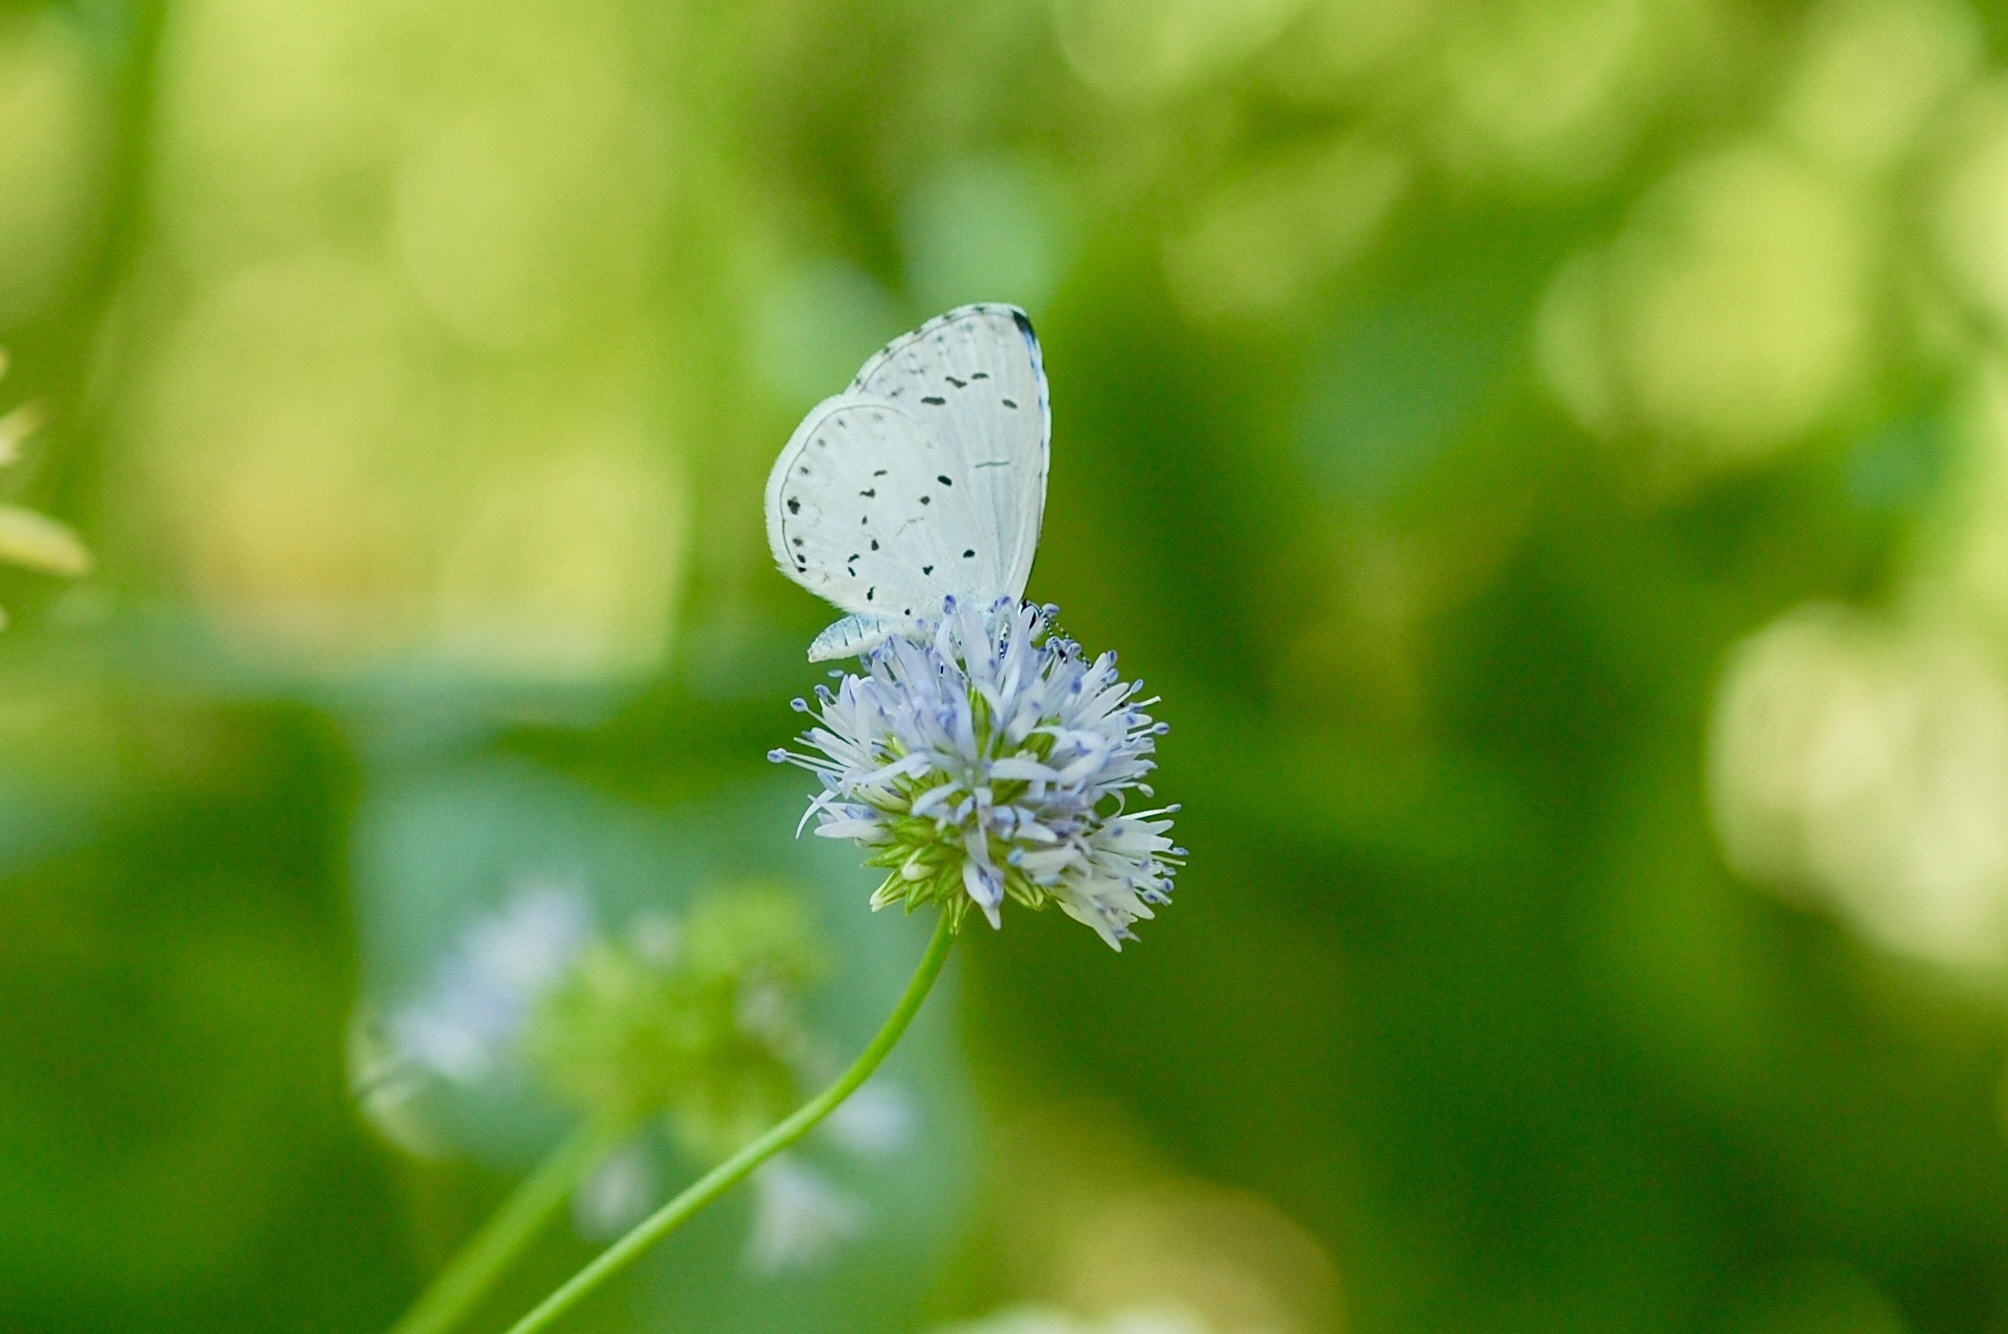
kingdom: Animalia
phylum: Arthropoda
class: Insecta
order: Lepidoptera
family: Lycaenidae
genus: Cyaniris
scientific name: Cyaniris neglecta
